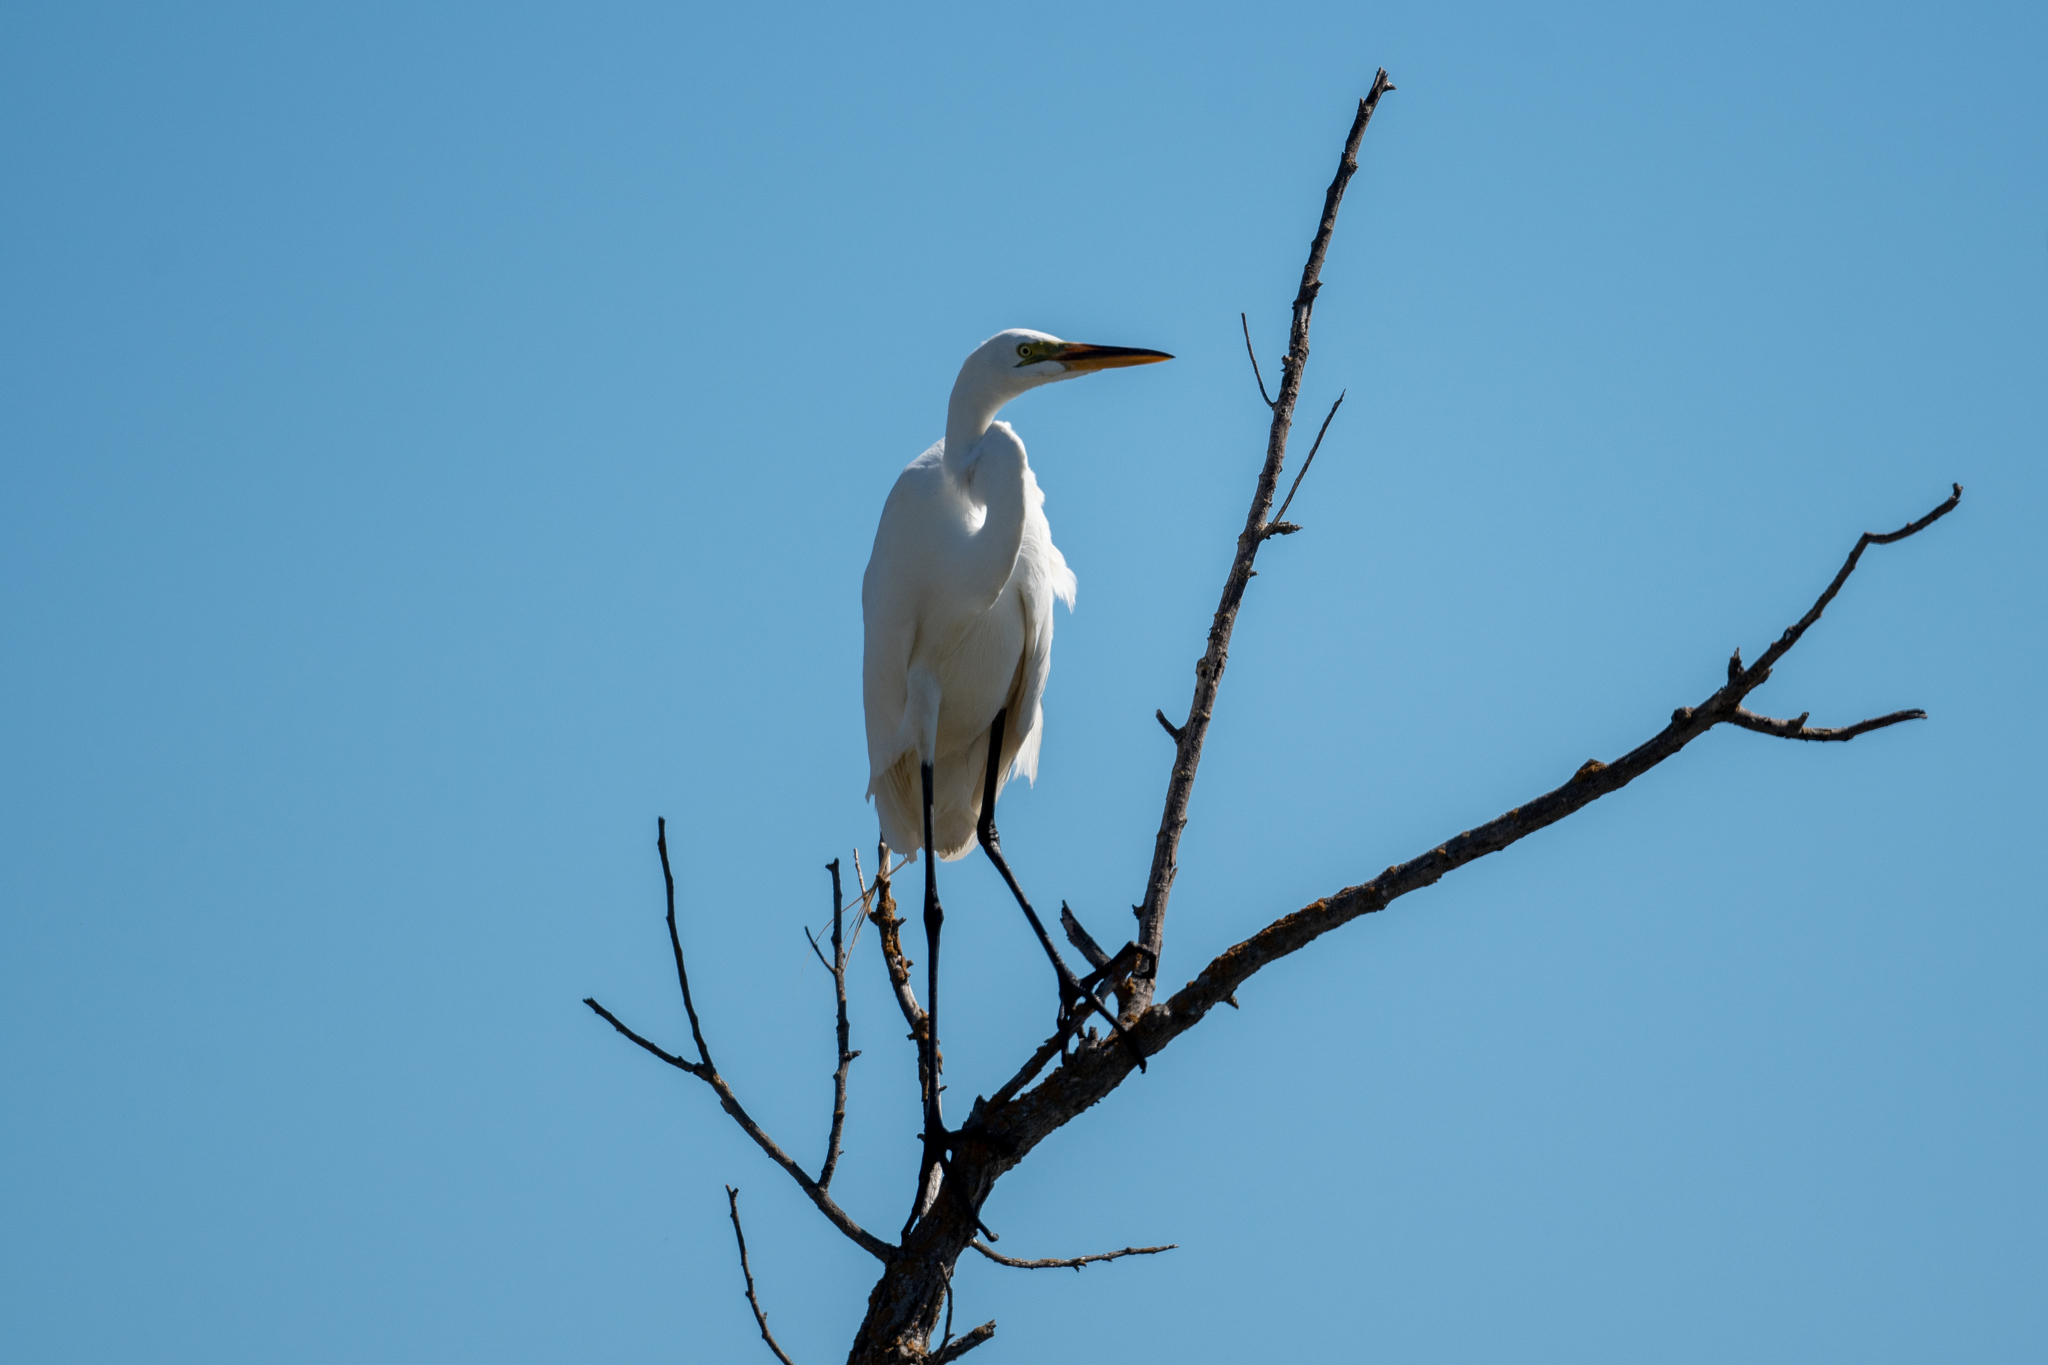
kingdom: Animalia
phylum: Chordata
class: Aves
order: Pelecaniformes
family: Ardeidae
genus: Ardea
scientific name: Ardea alba
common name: Great egret
